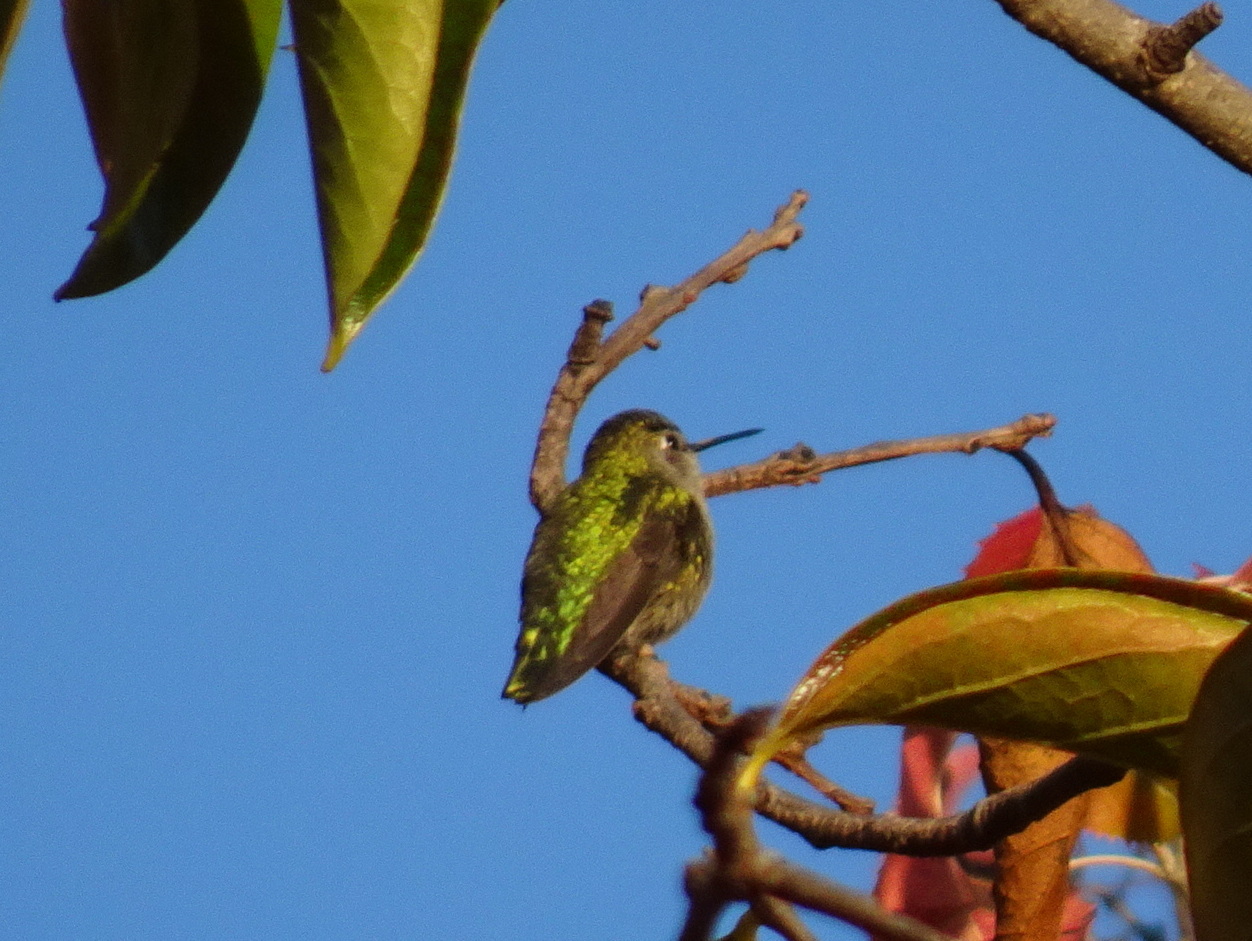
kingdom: Animalia
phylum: Chordata
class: Aves
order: Apodiformes
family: Trochilidae
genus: Calypte
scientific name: Calypte anna
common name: Anna's hummingbird
